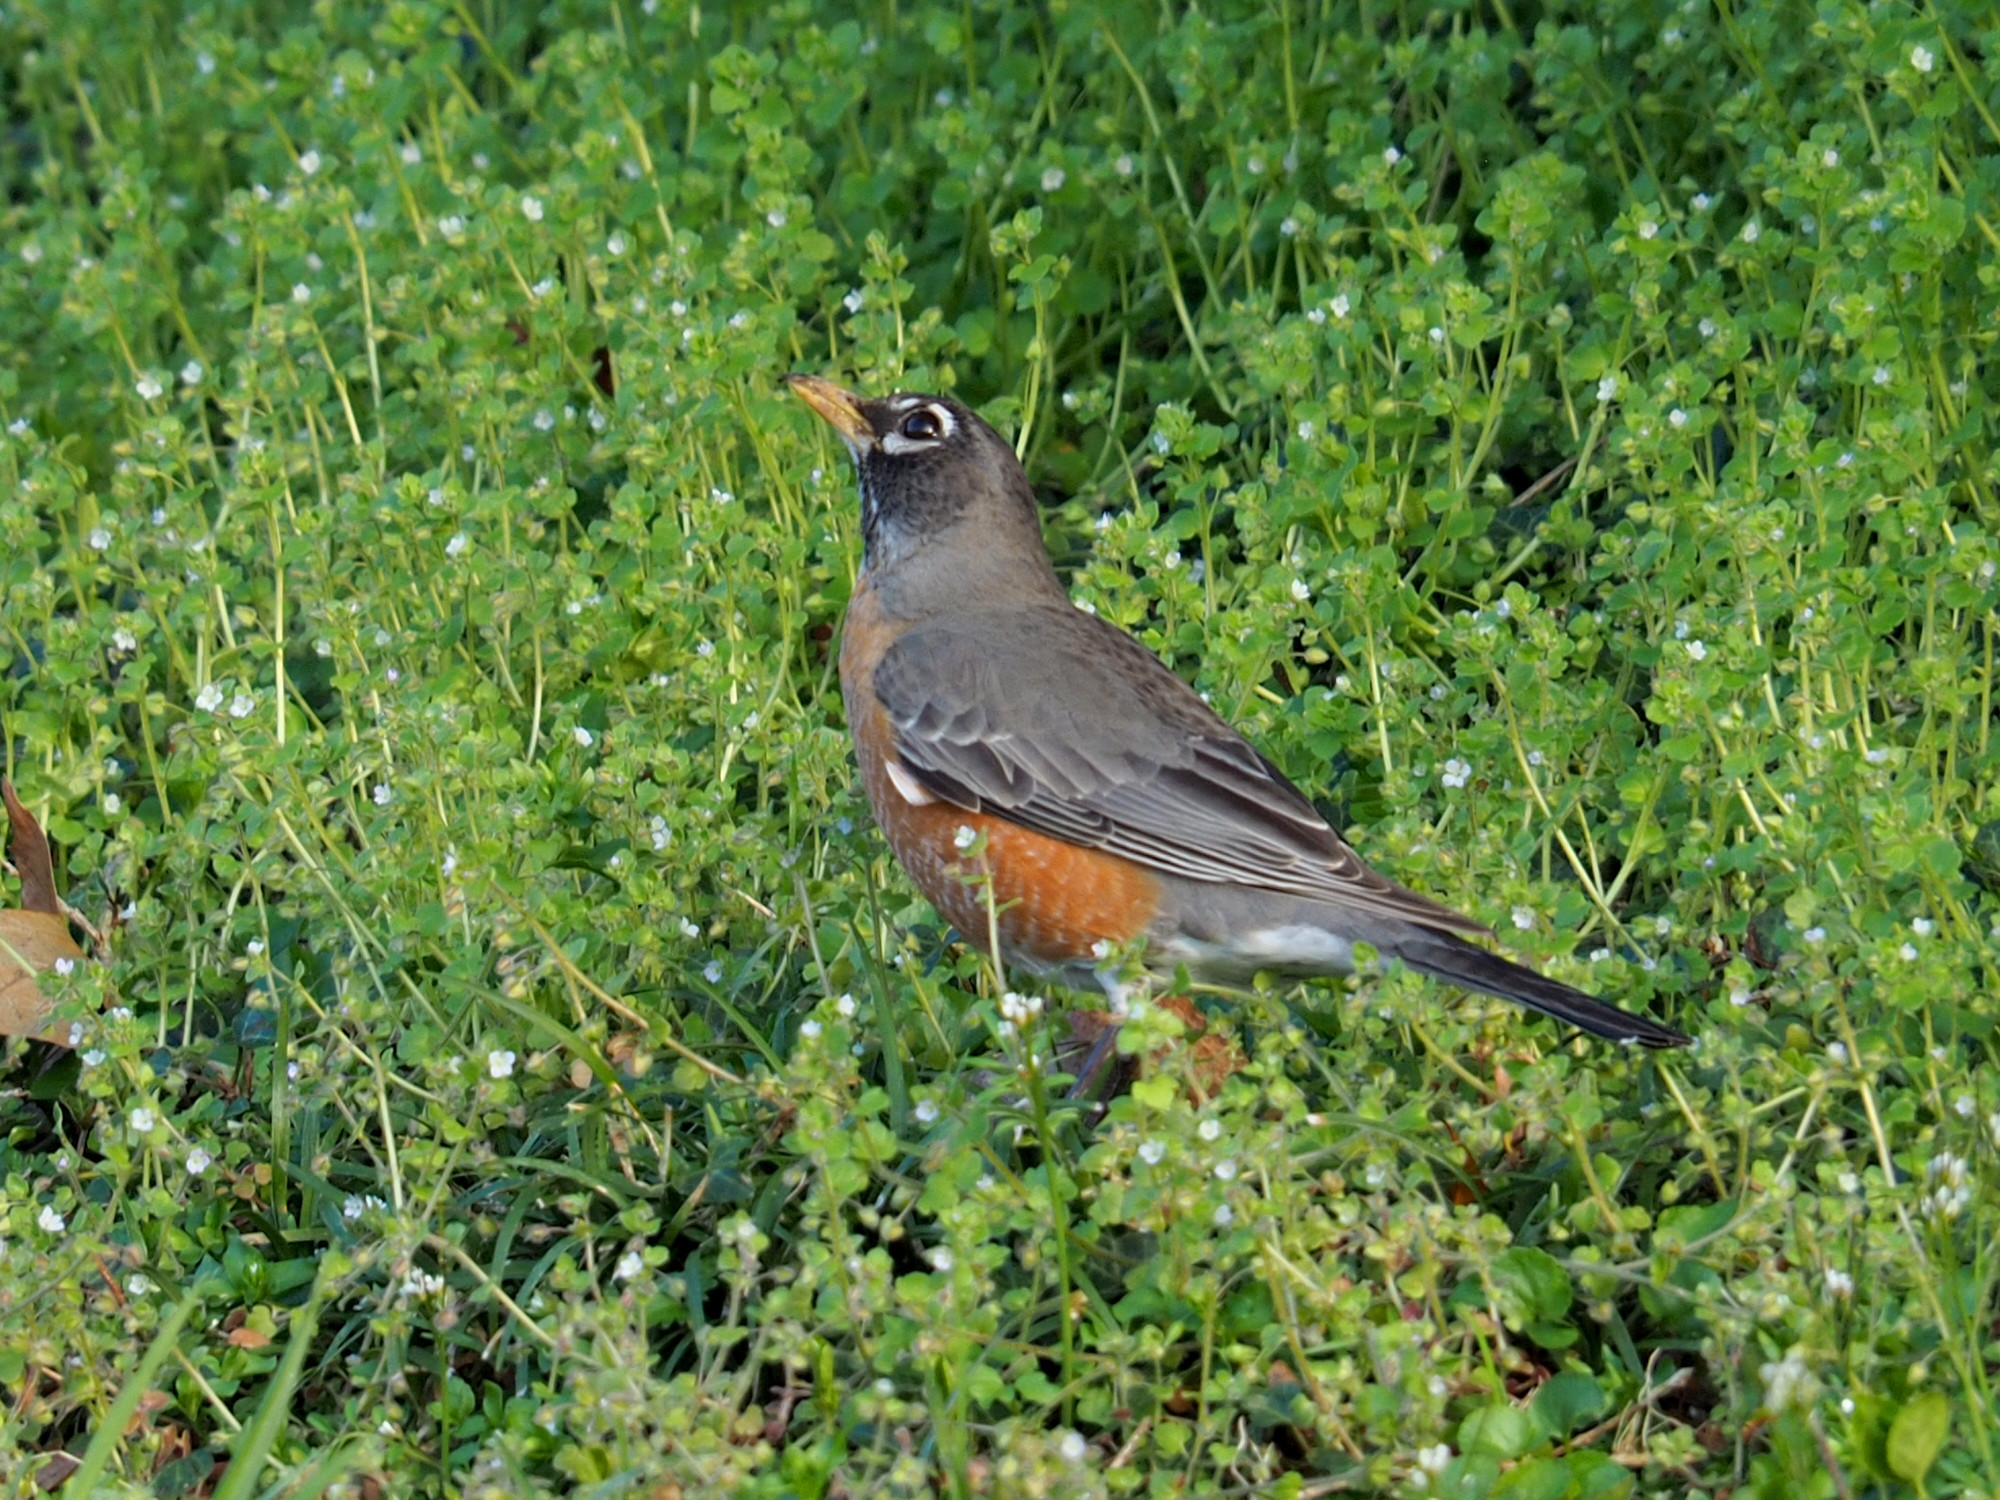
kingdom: Animalia
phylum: Chordata
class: Aves
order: Passeriformes
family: Turdidae
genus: Turdus
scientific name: Turdus migratorius
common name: American robin
